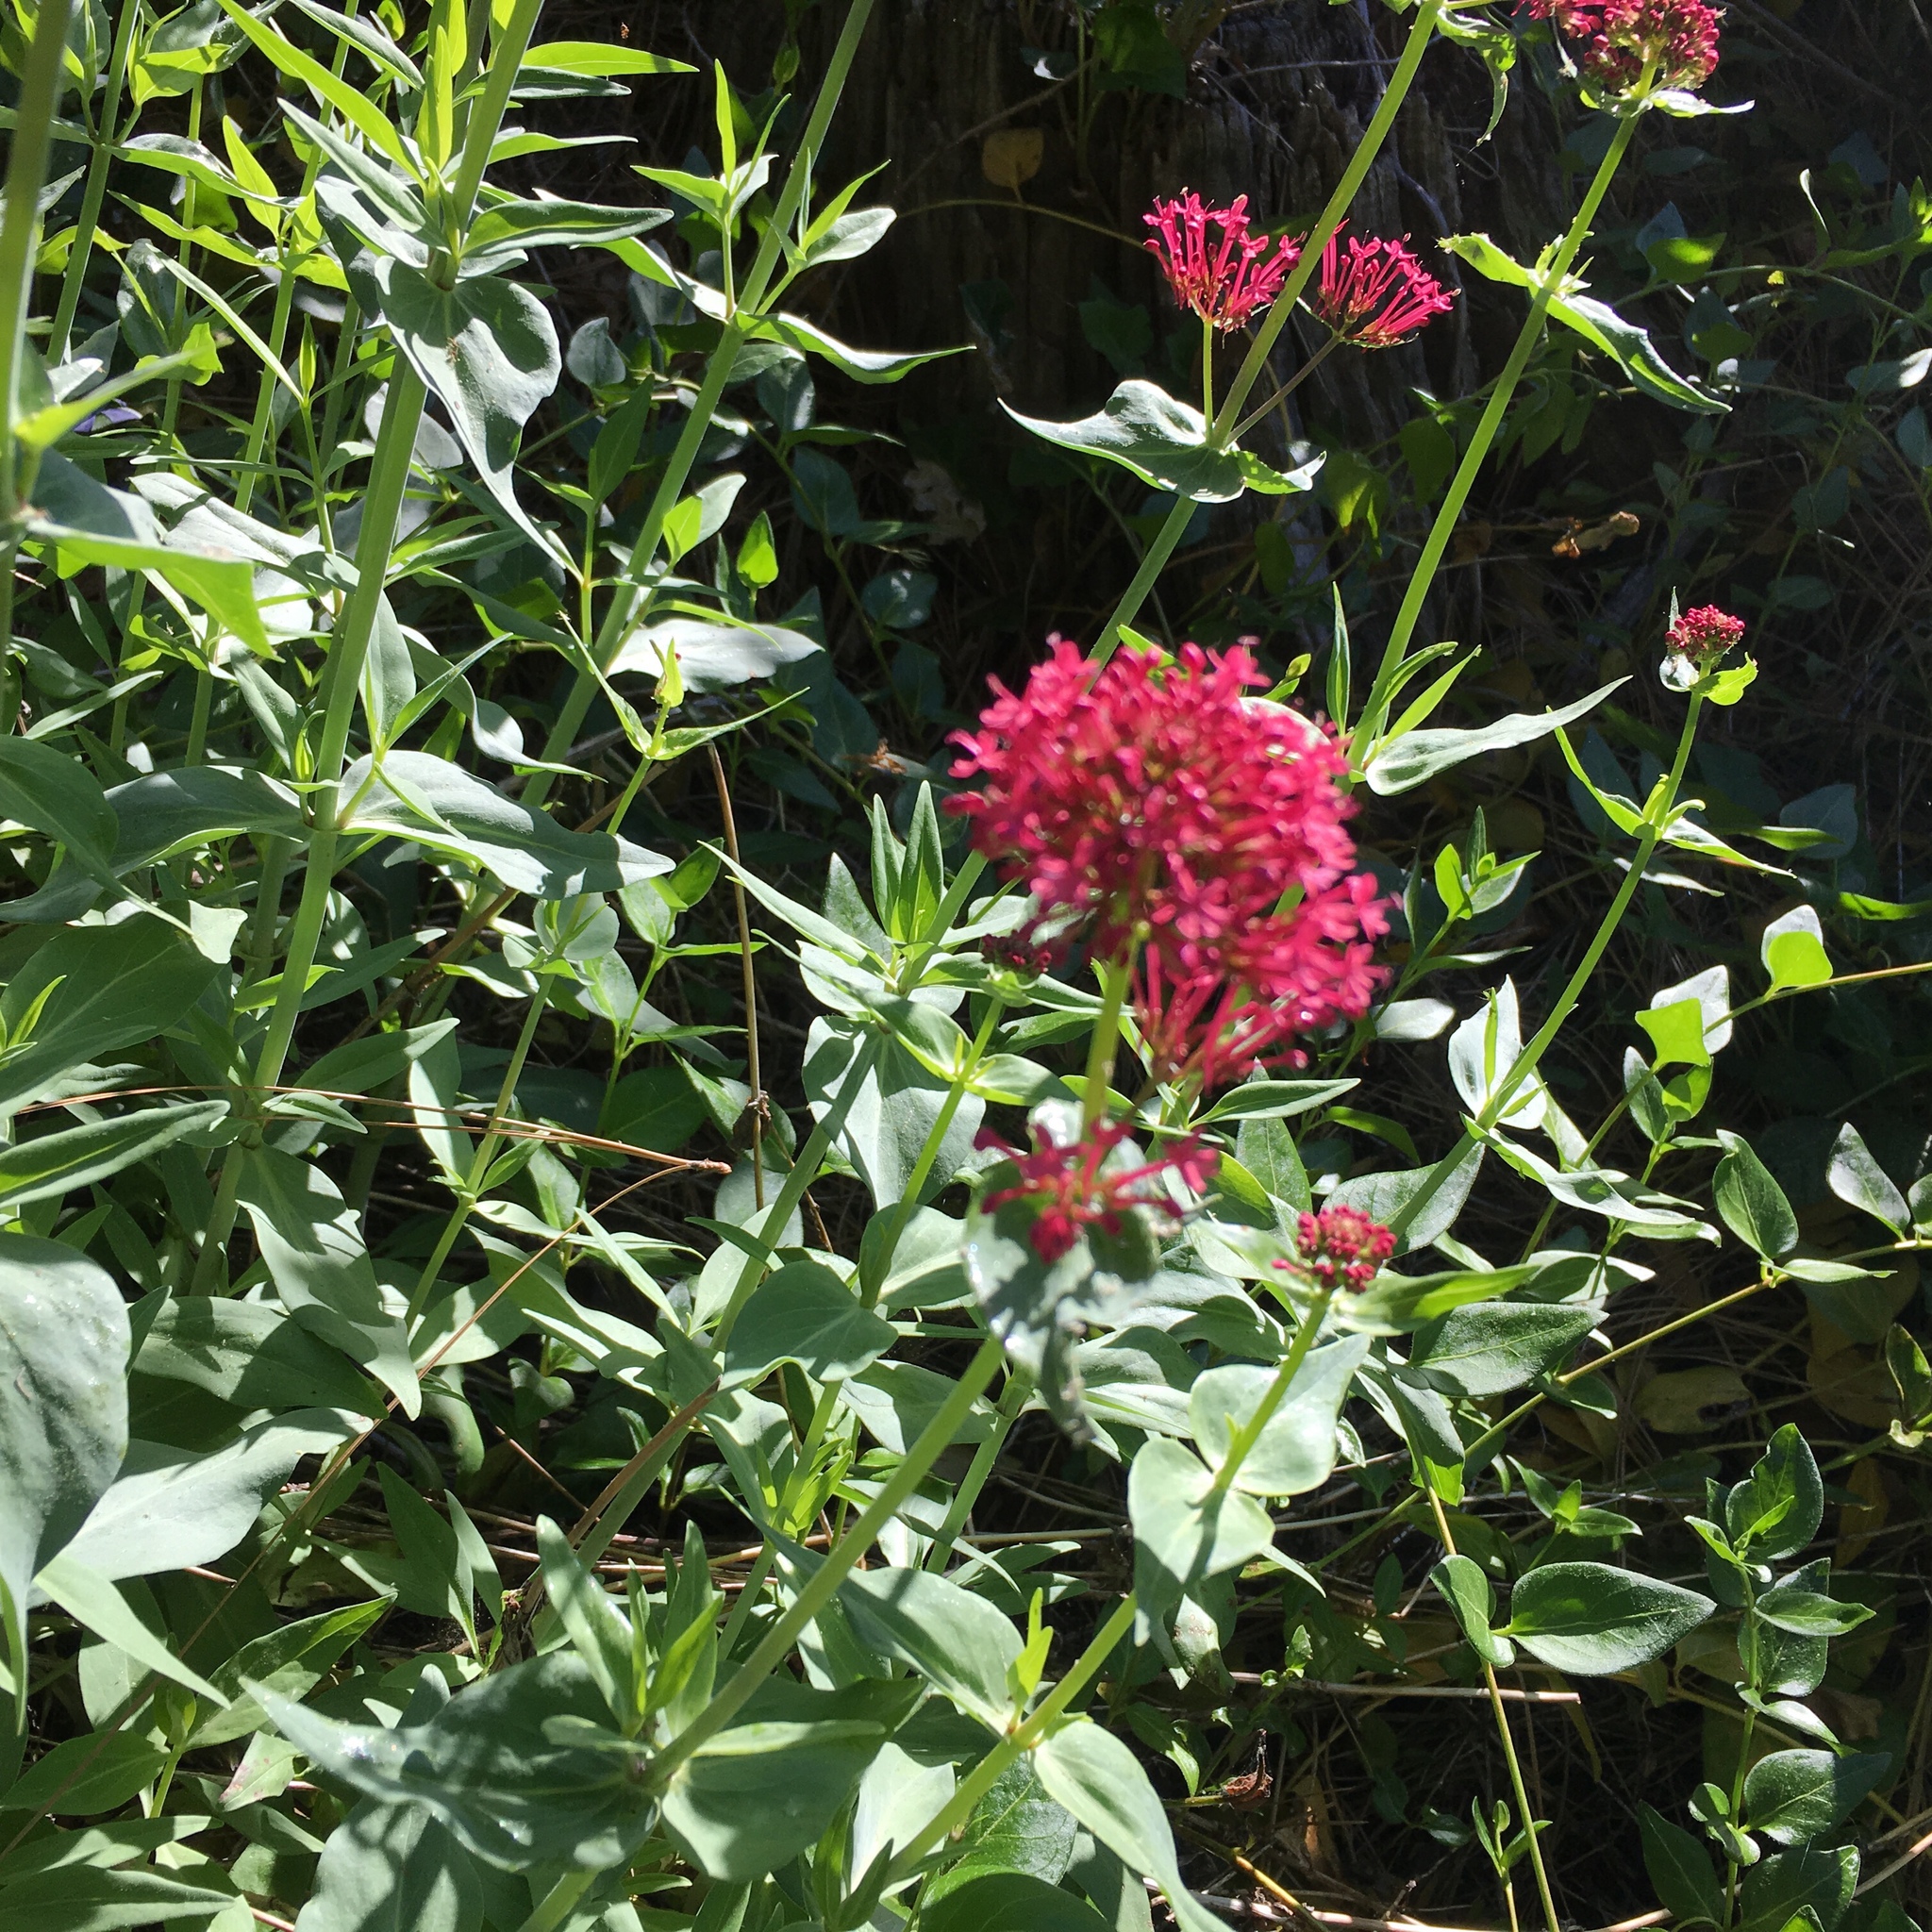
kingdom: Plantae
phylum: Tracheophyta
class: Magnoliopsida
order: Dipsacales
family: Caprifoliaceae
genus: Centranthus
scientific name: Centranthus ruber
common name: Red valerian
